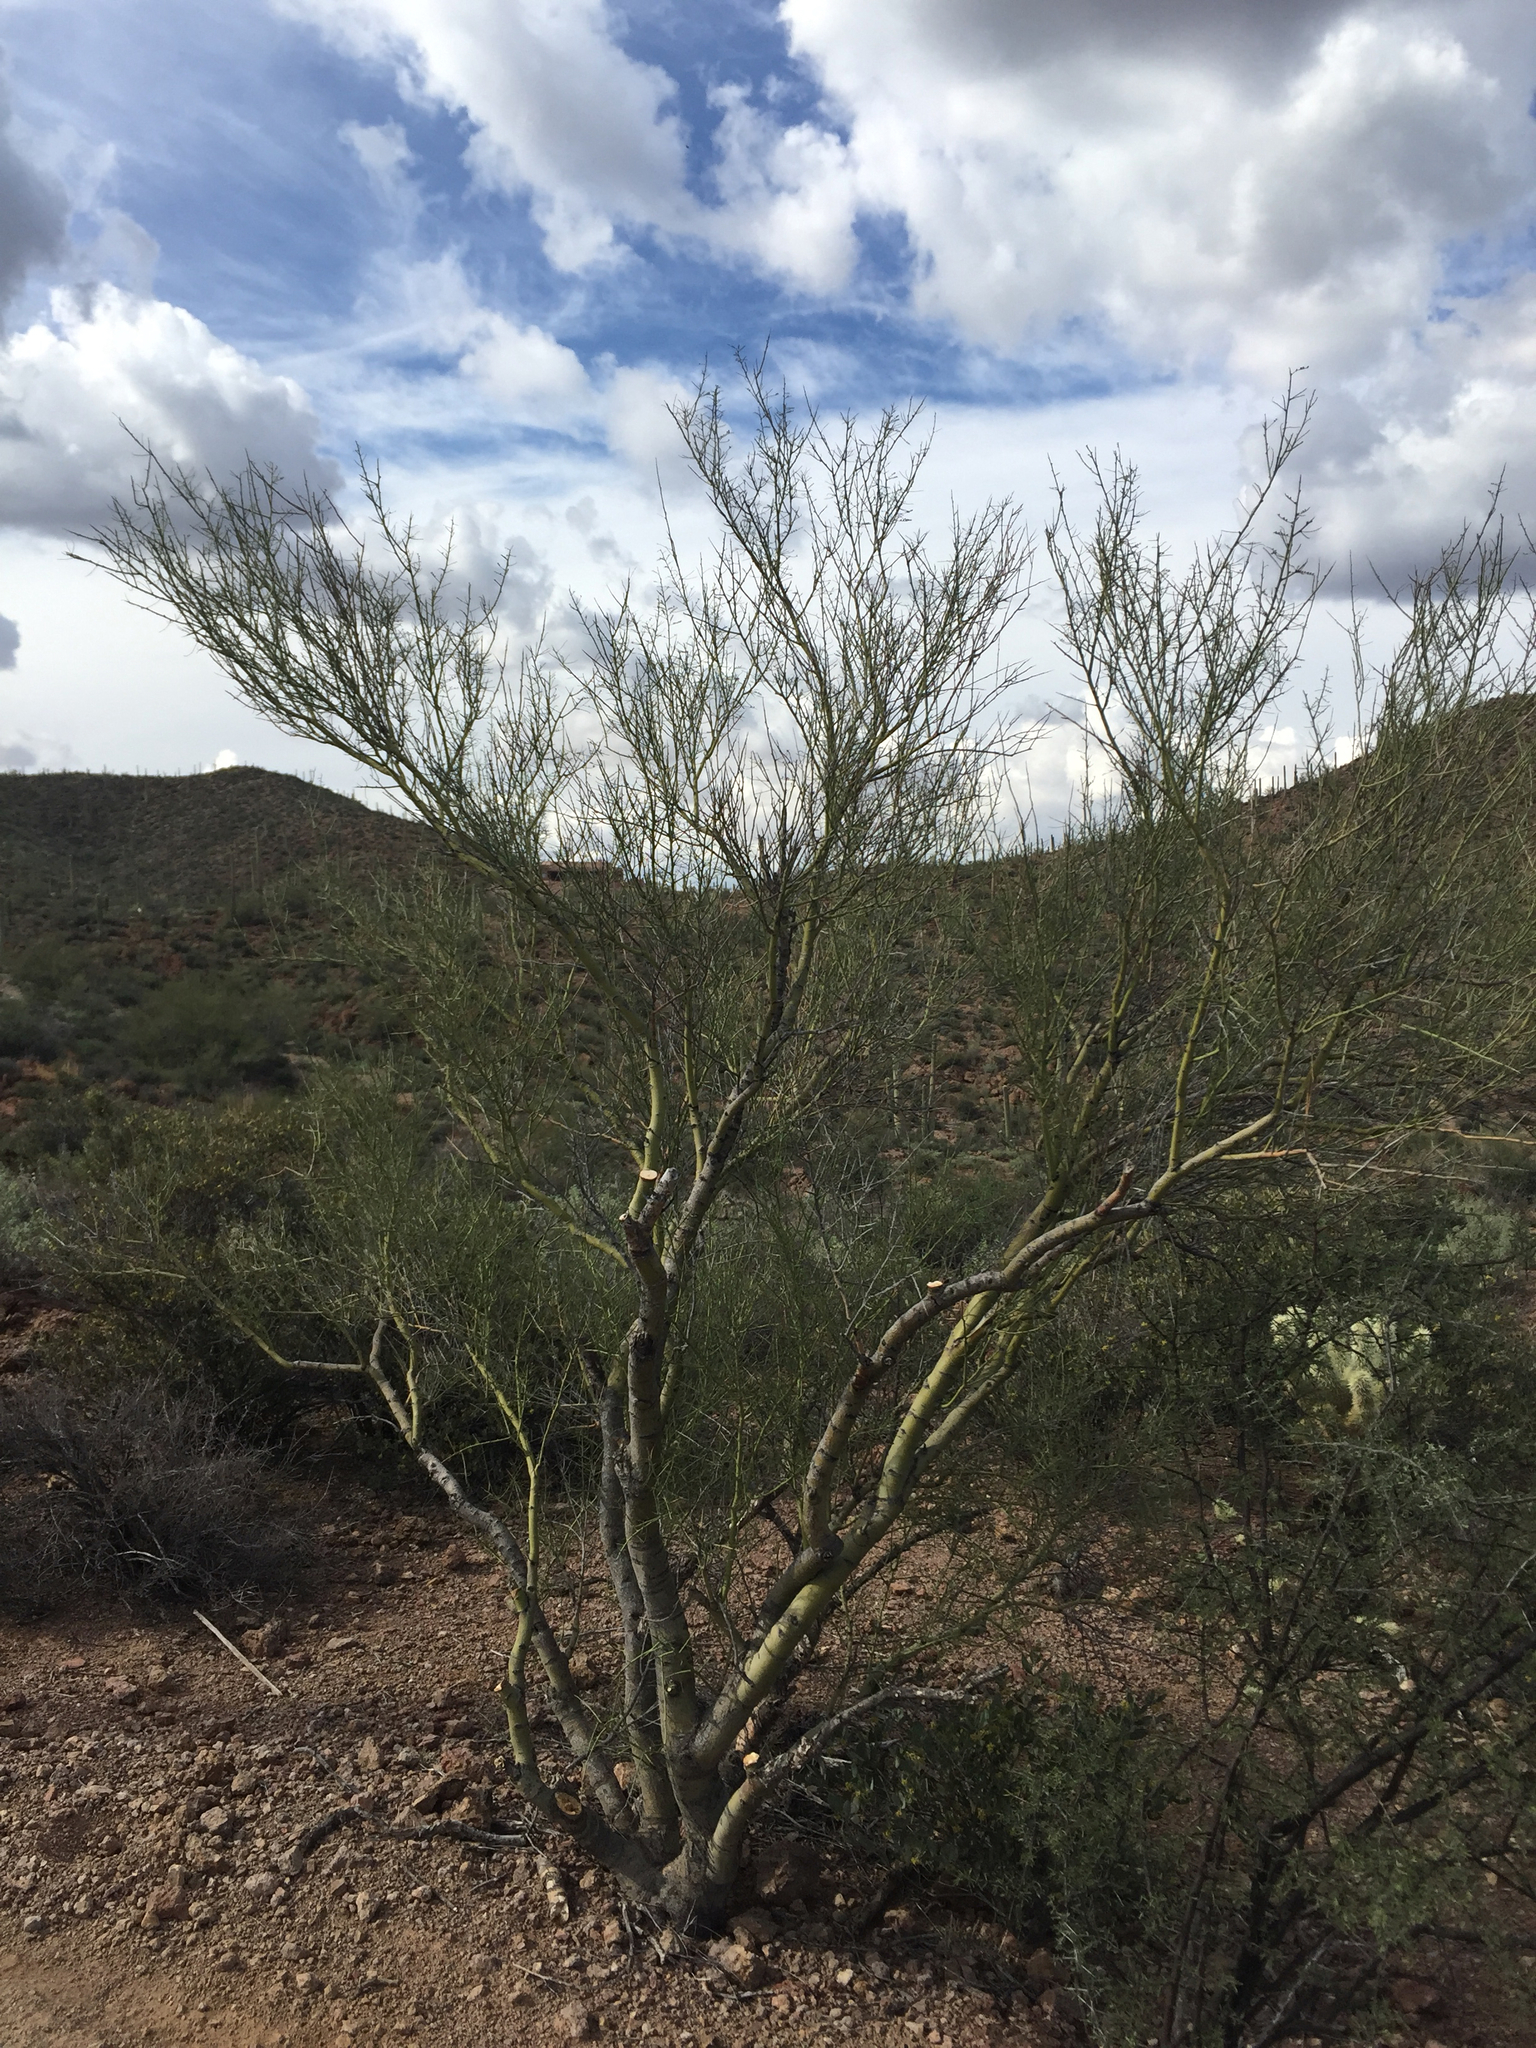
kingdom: Plantae
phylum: Tracheophyta
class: Magnoliopsida
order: Fabales
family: Fabaceae
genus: Parkinsonia
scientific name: Parkinsonia microphylla
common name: Yellow paloverde
